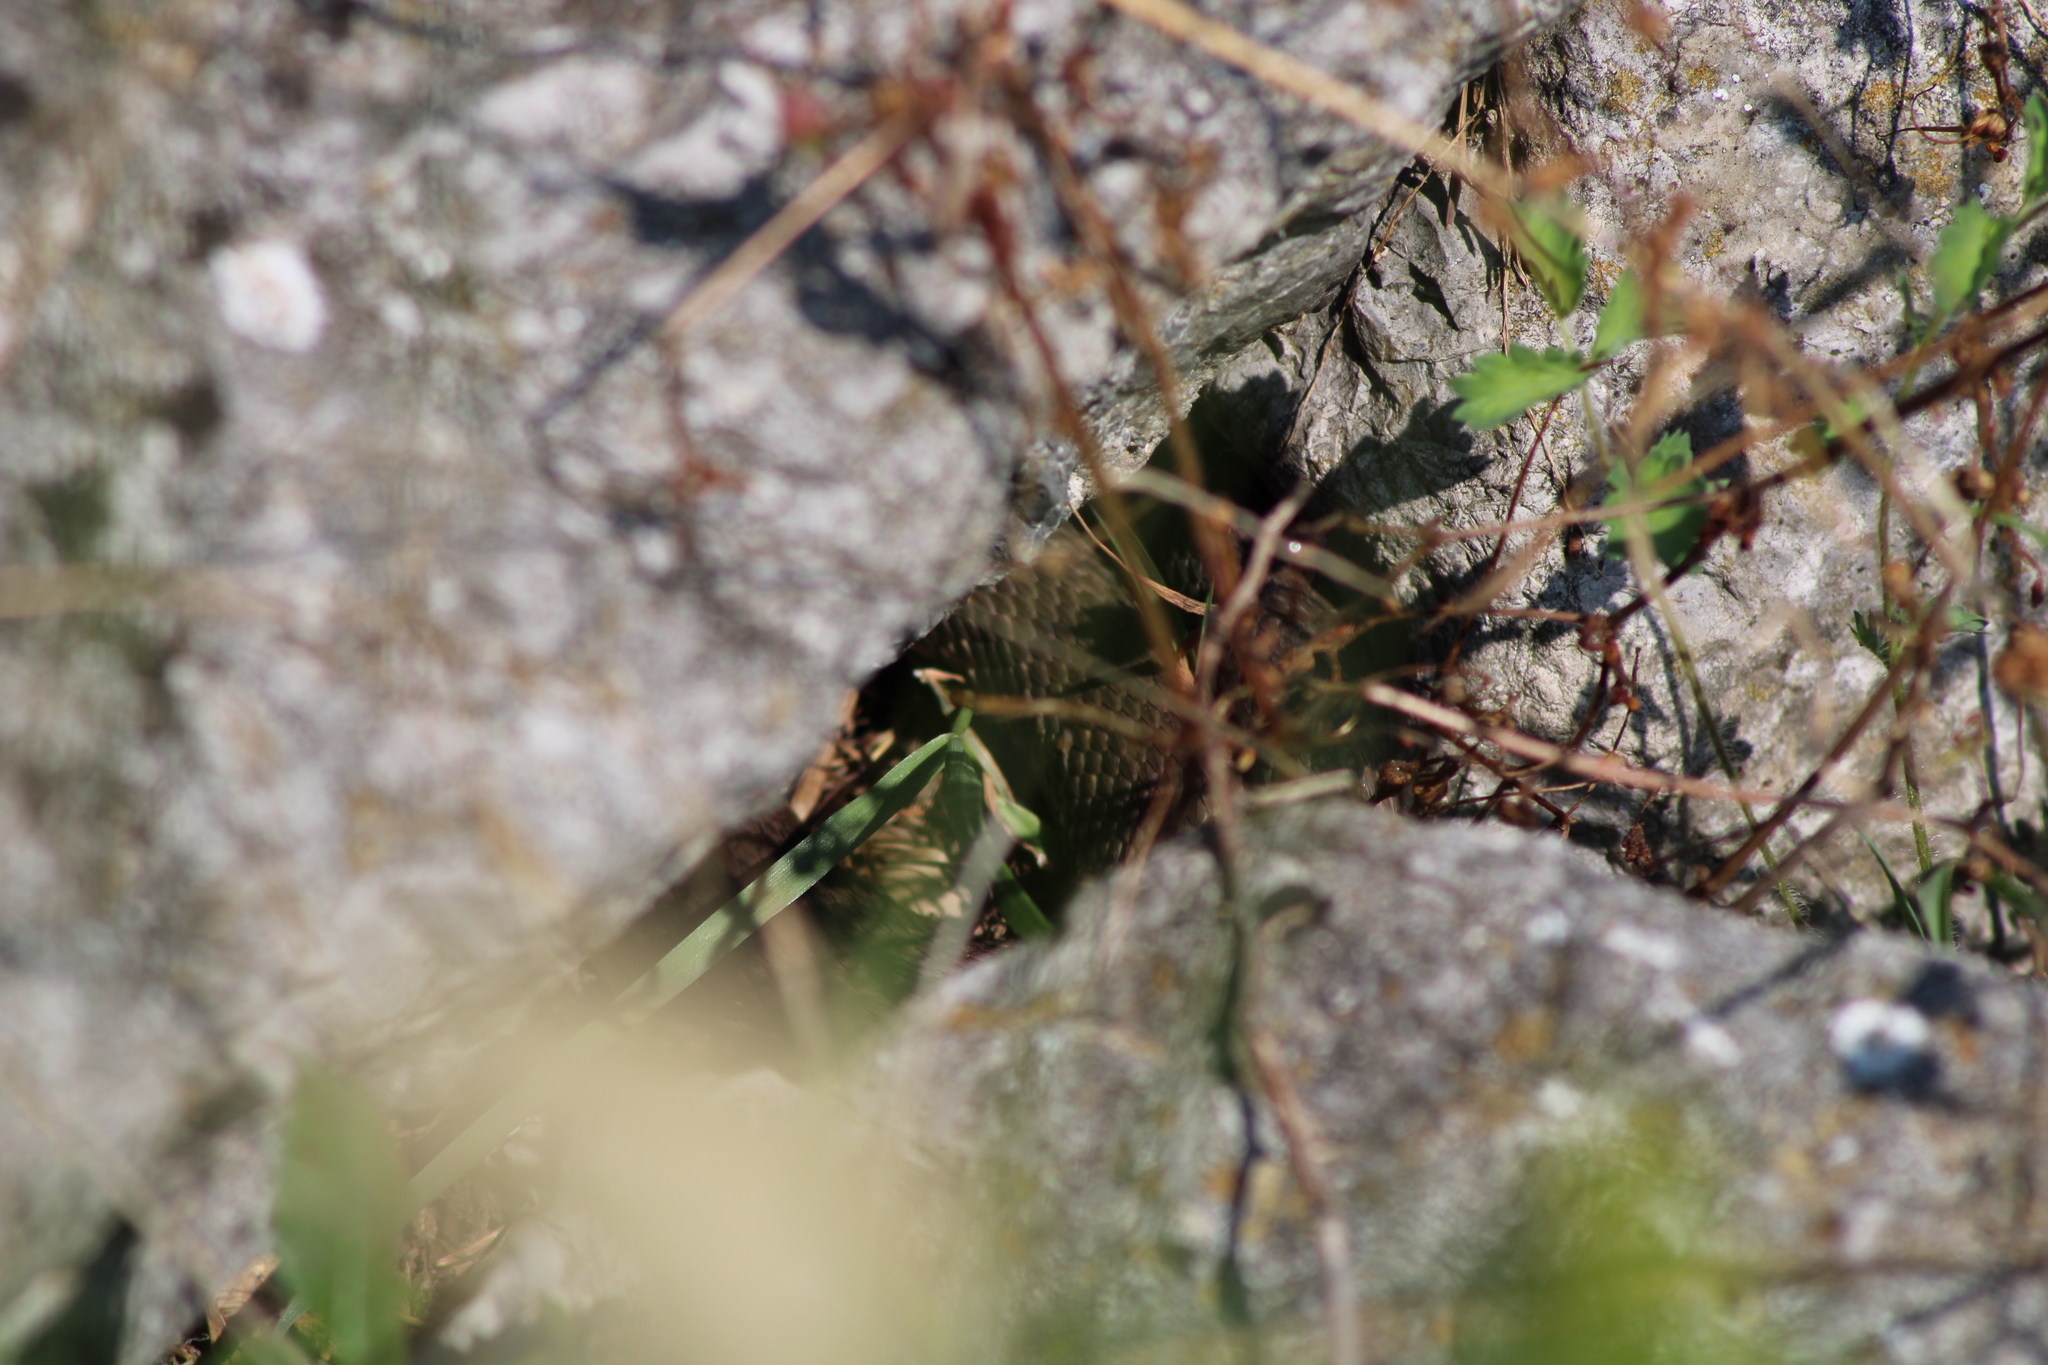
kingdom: Animalia
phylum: Chordata
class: Squamata
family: Colubridae
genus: Natrix
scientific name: Natrix tessellata
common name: Dice snake
